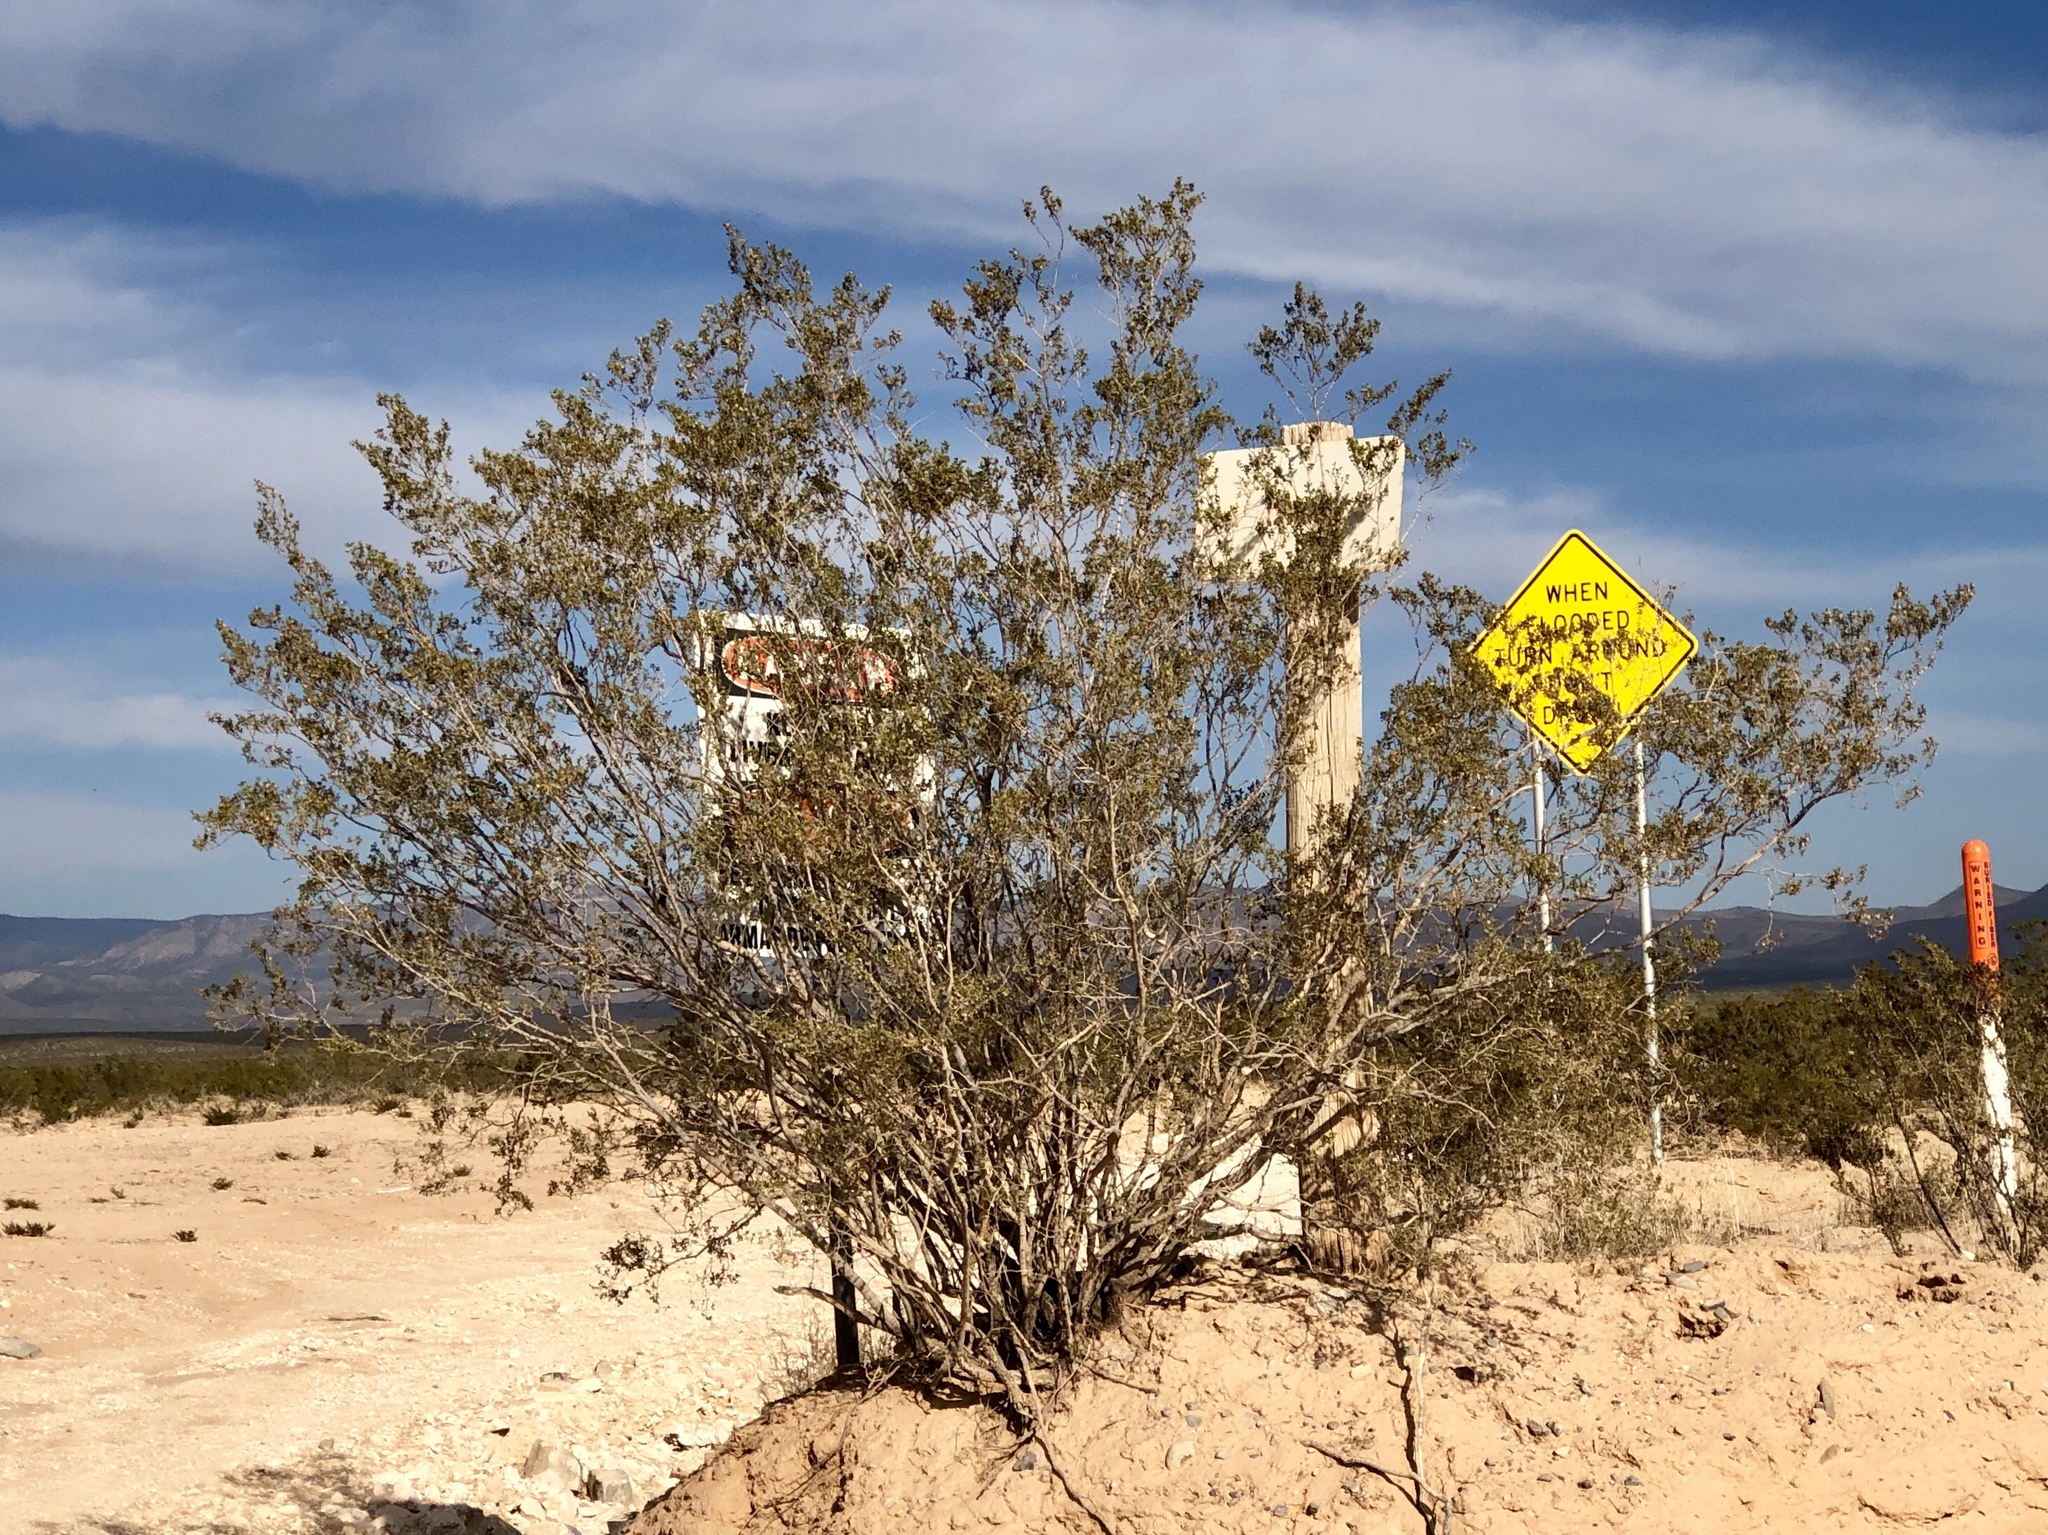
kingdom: Plantae
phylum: Tracheophyta
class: Magnoliopsida
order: Zygophyllales
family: Zygophyllaceae
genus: Larrea
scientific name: Larrea tridentata
